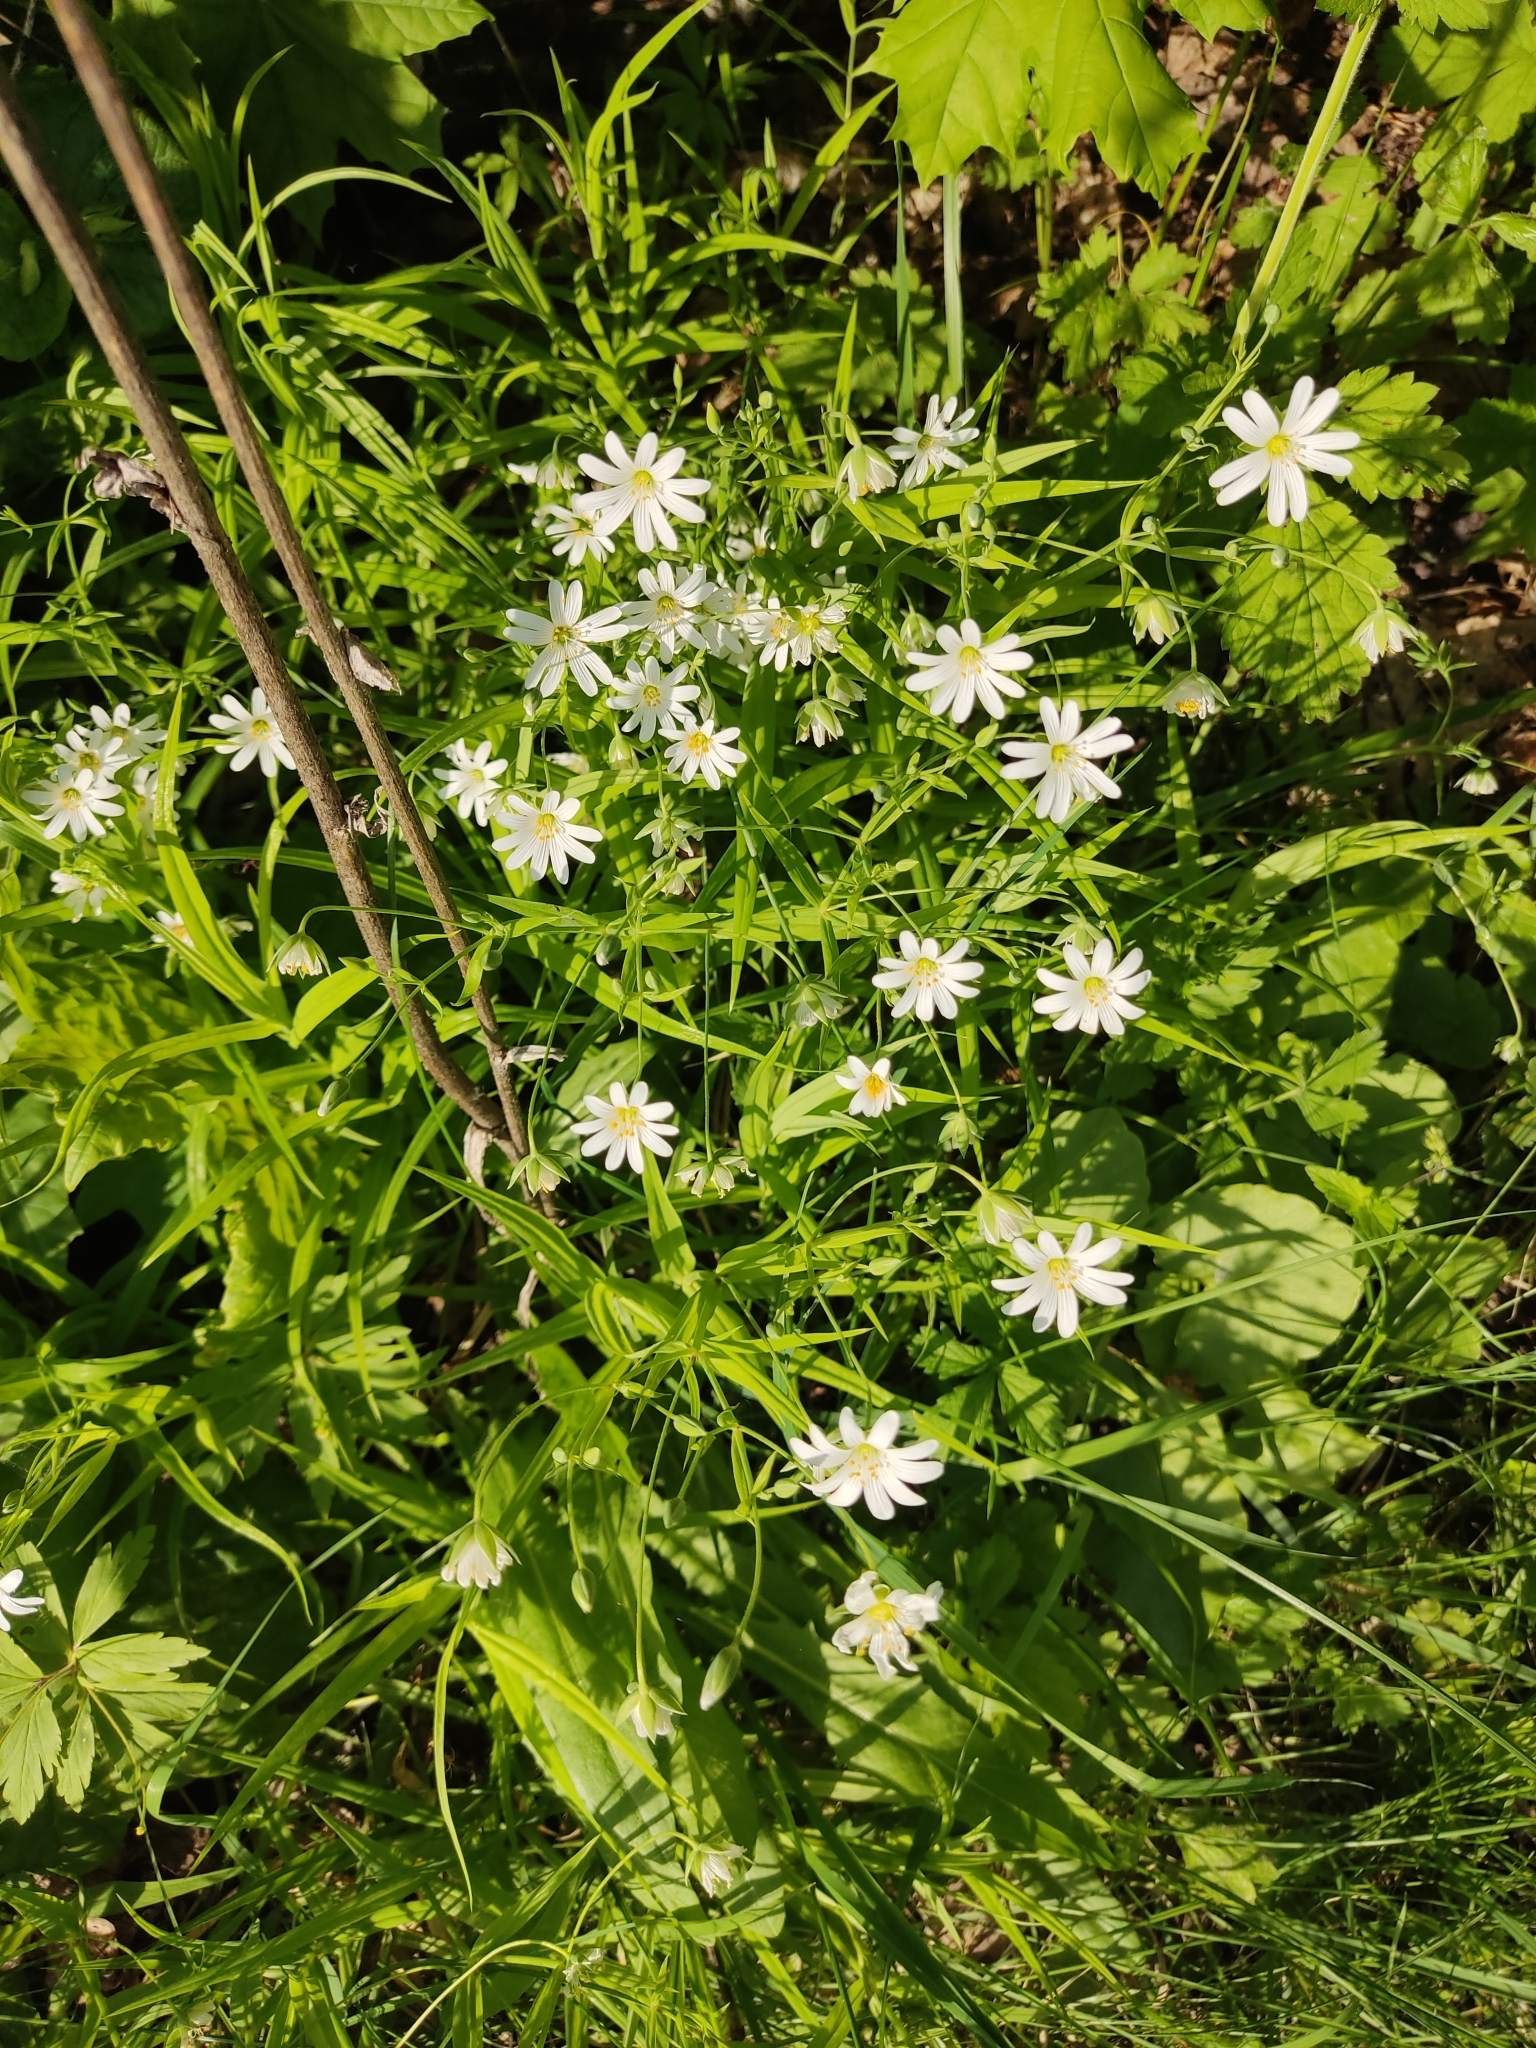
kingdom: Plantae
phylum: Tracheophyta
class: Magnoliopsida
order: Caryophyllales
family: Caryophyllaceae
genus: Rabelera
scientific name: Rabelera holostea
